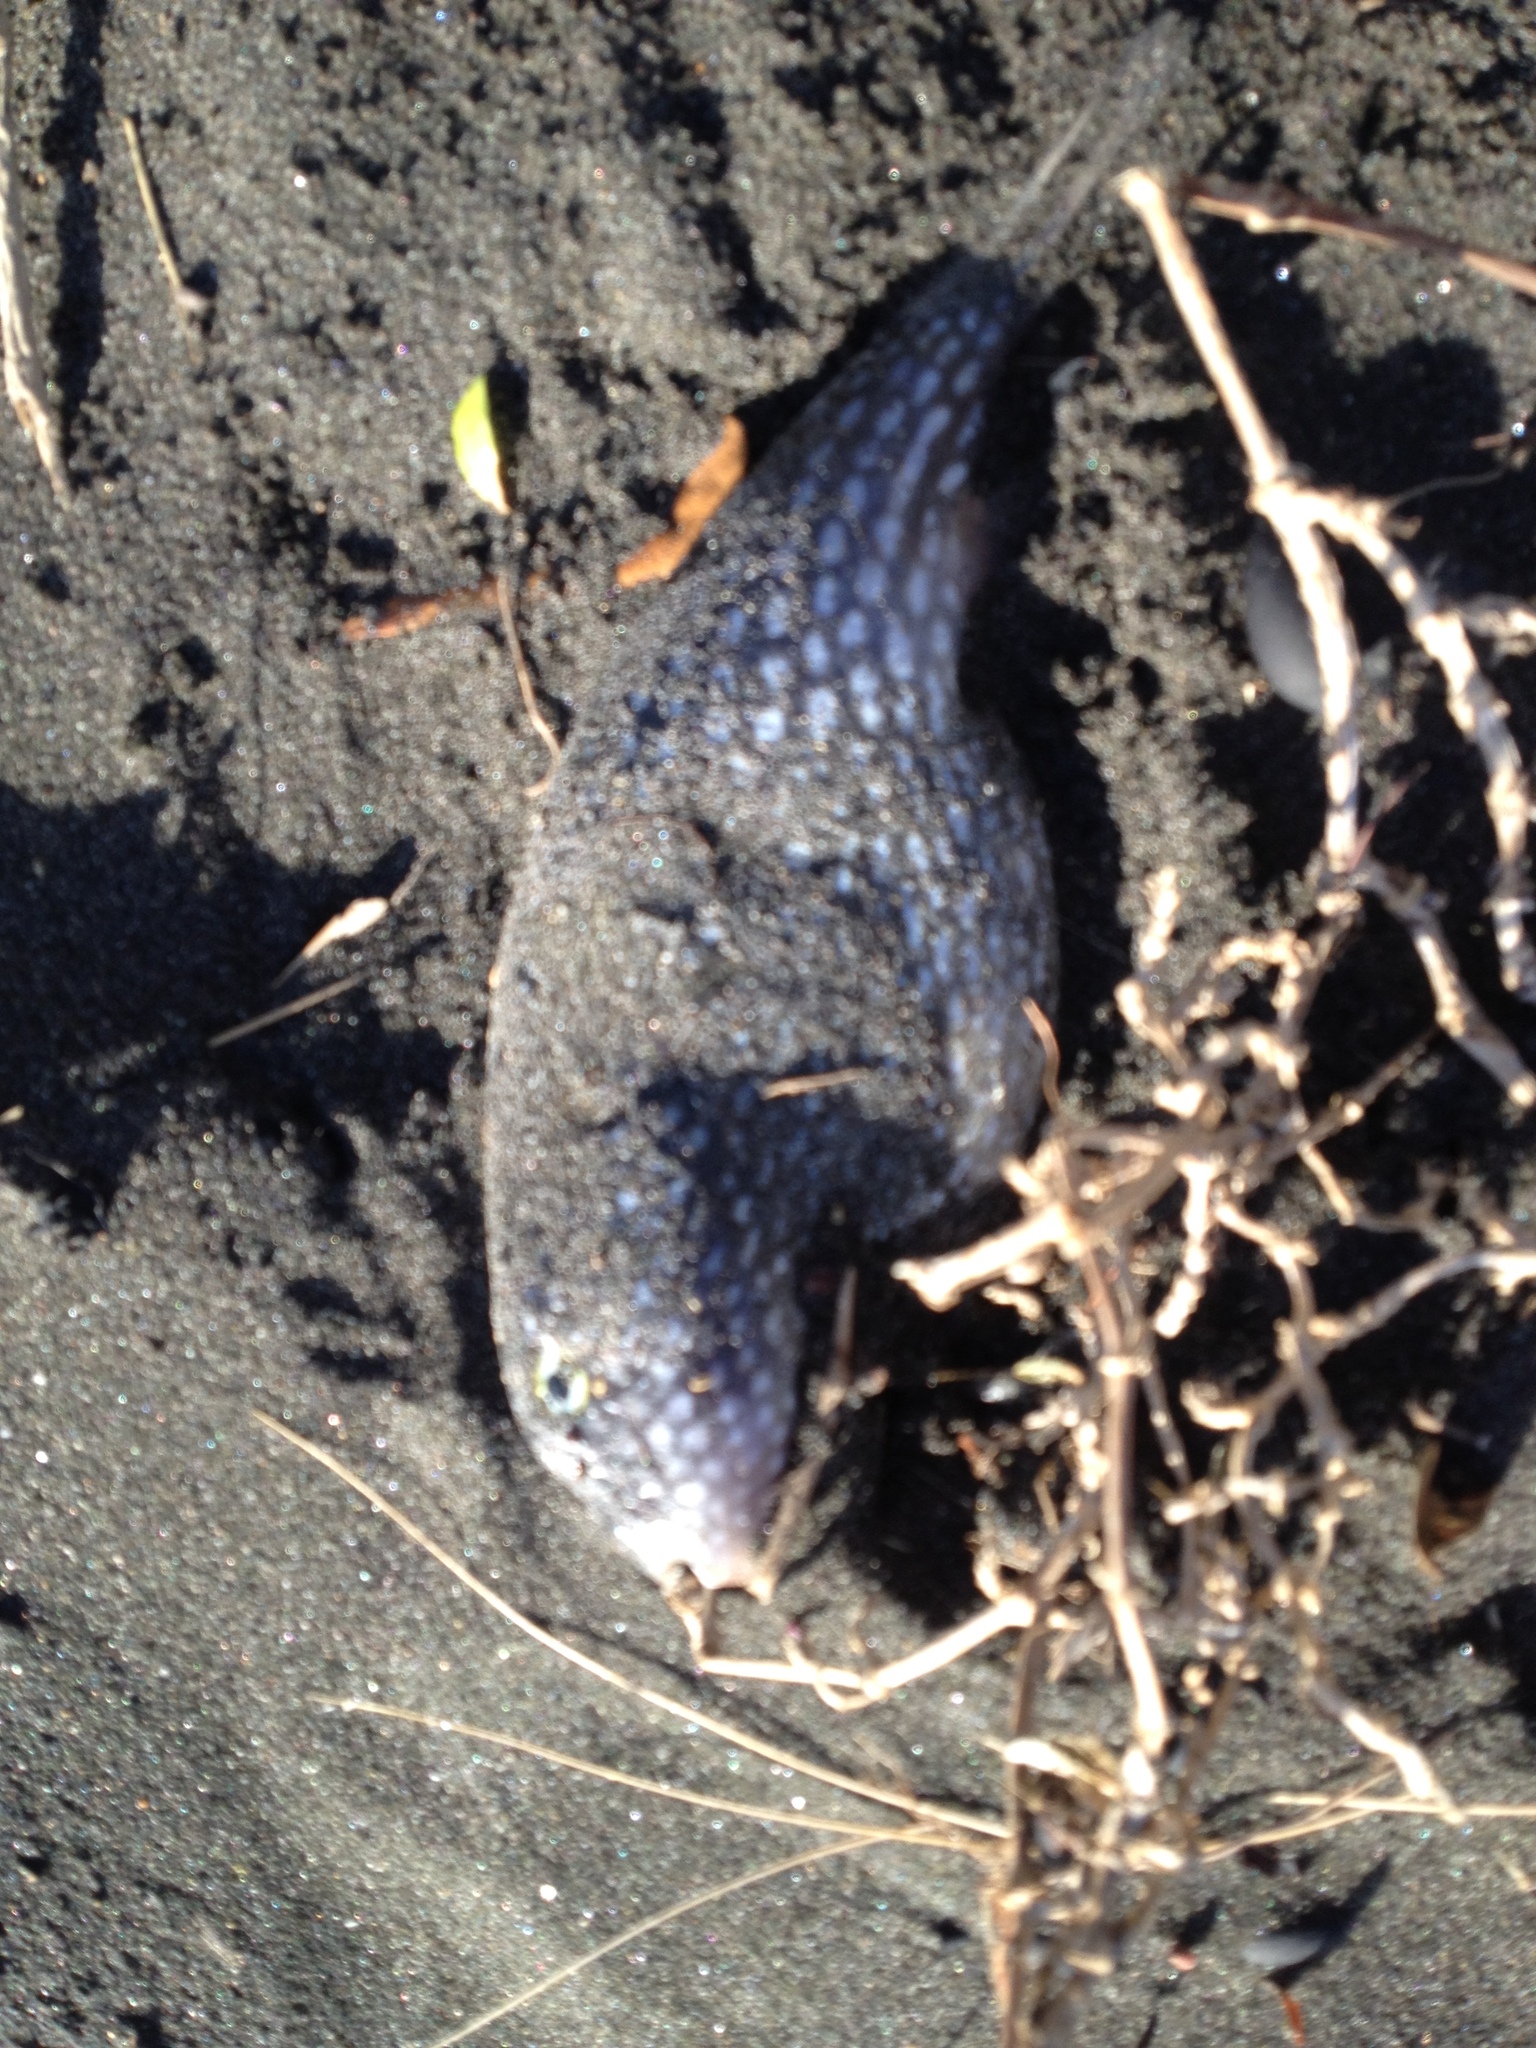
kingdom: Animalia
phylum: Chordata
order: Tetraodontiformes
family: Tetraodontidae
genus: Arothron
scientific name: Arothron firmamentum
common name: Starry toado
